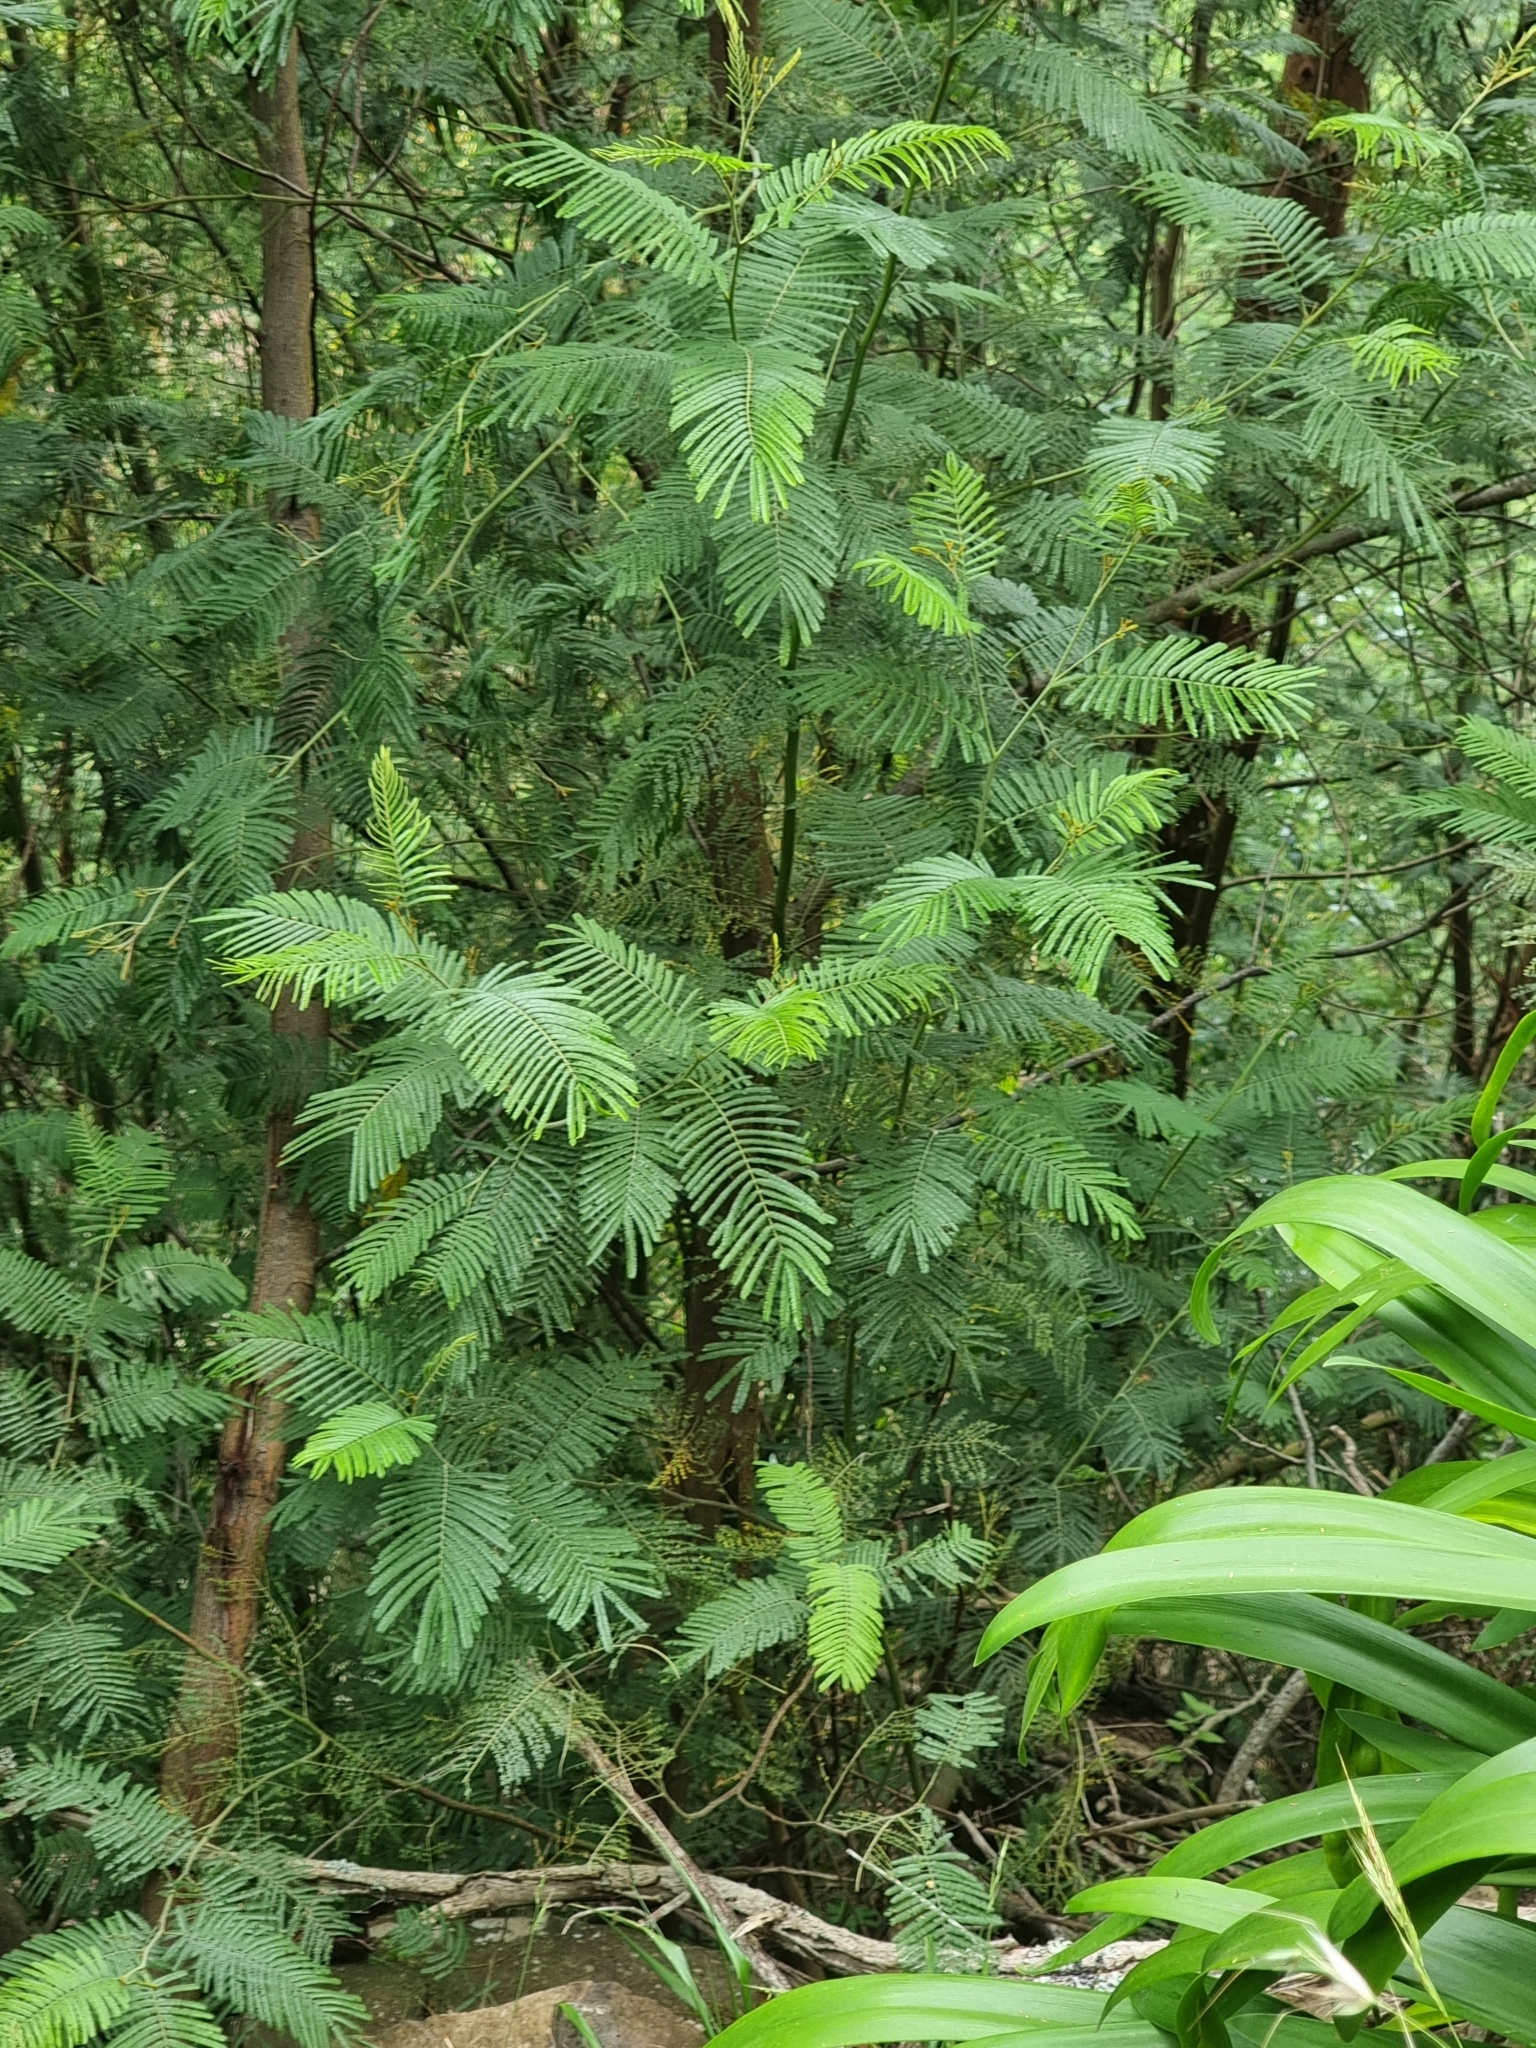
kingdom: Plantae
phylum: Tracheophyta
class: Magnoliopsida
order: Fabales
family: Fabaceae
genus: Acacia
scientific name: Acacia mearnsii
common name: Black wattle
